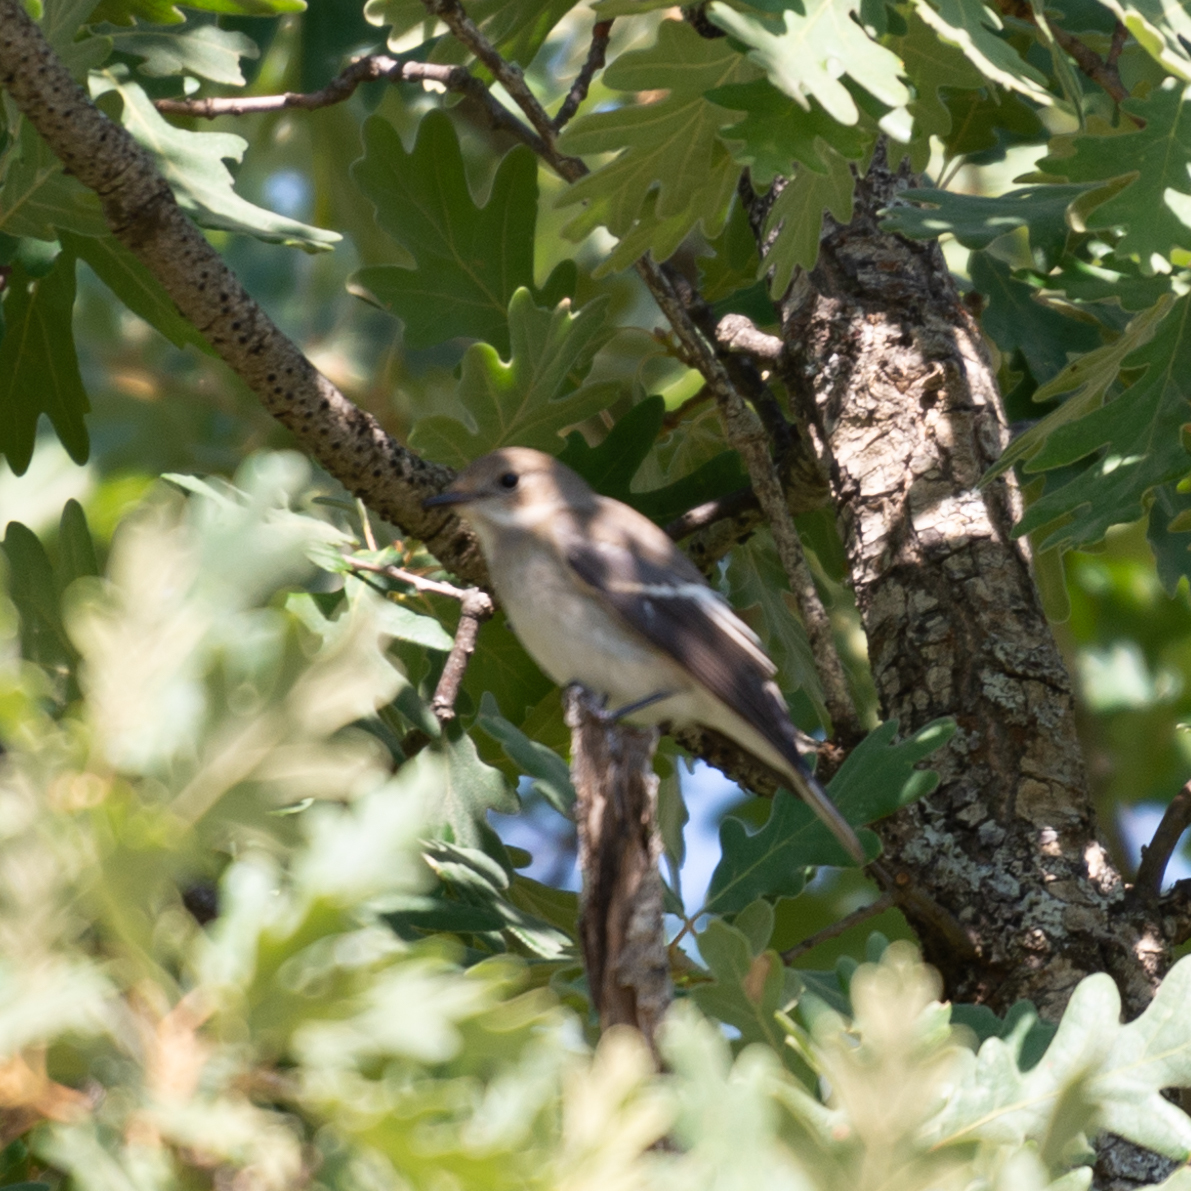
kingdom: Animalia
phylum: Chordata
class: Aves
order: Passeriformes
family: Muscicapidae
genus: Ficedula
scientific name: Ficedula hypoleuca
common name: European pied flycatcher
